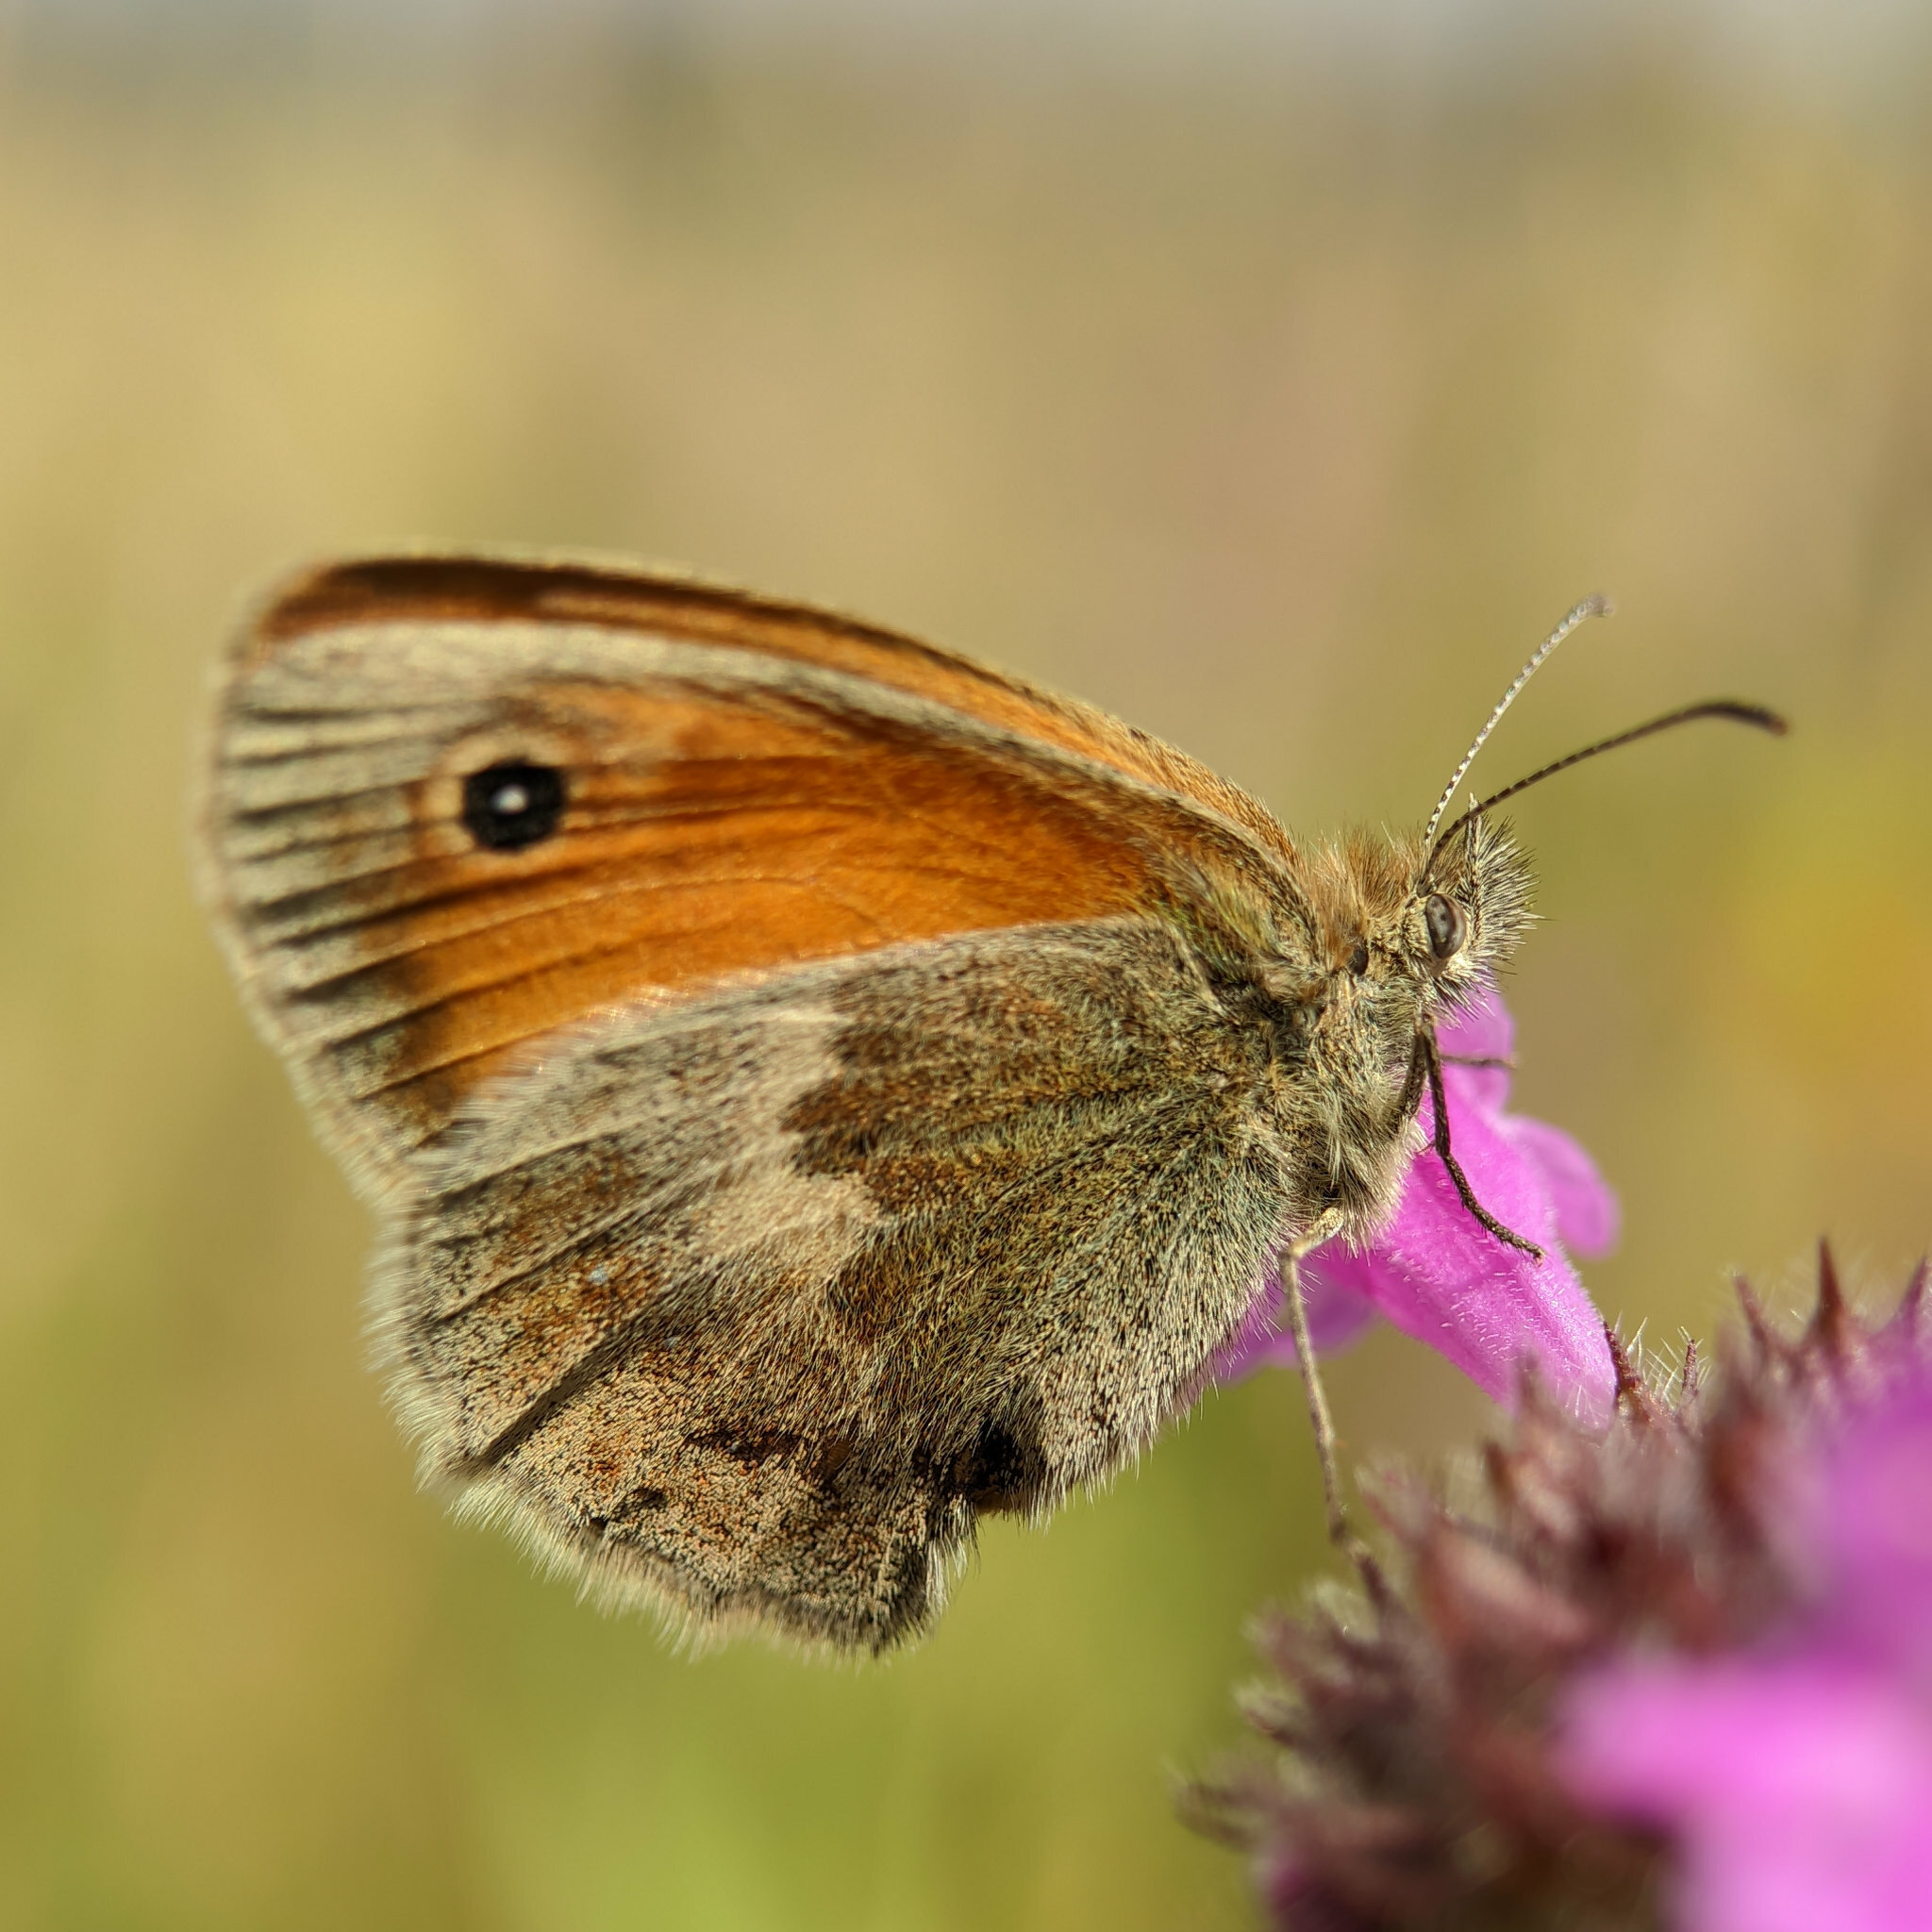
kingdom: Animalia
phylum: Arthropoda
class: Insecta
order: Lepidoptera
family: Nymphalidae
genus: Coenonympha
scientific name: Coenonympha pamphilus
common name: Small heath
